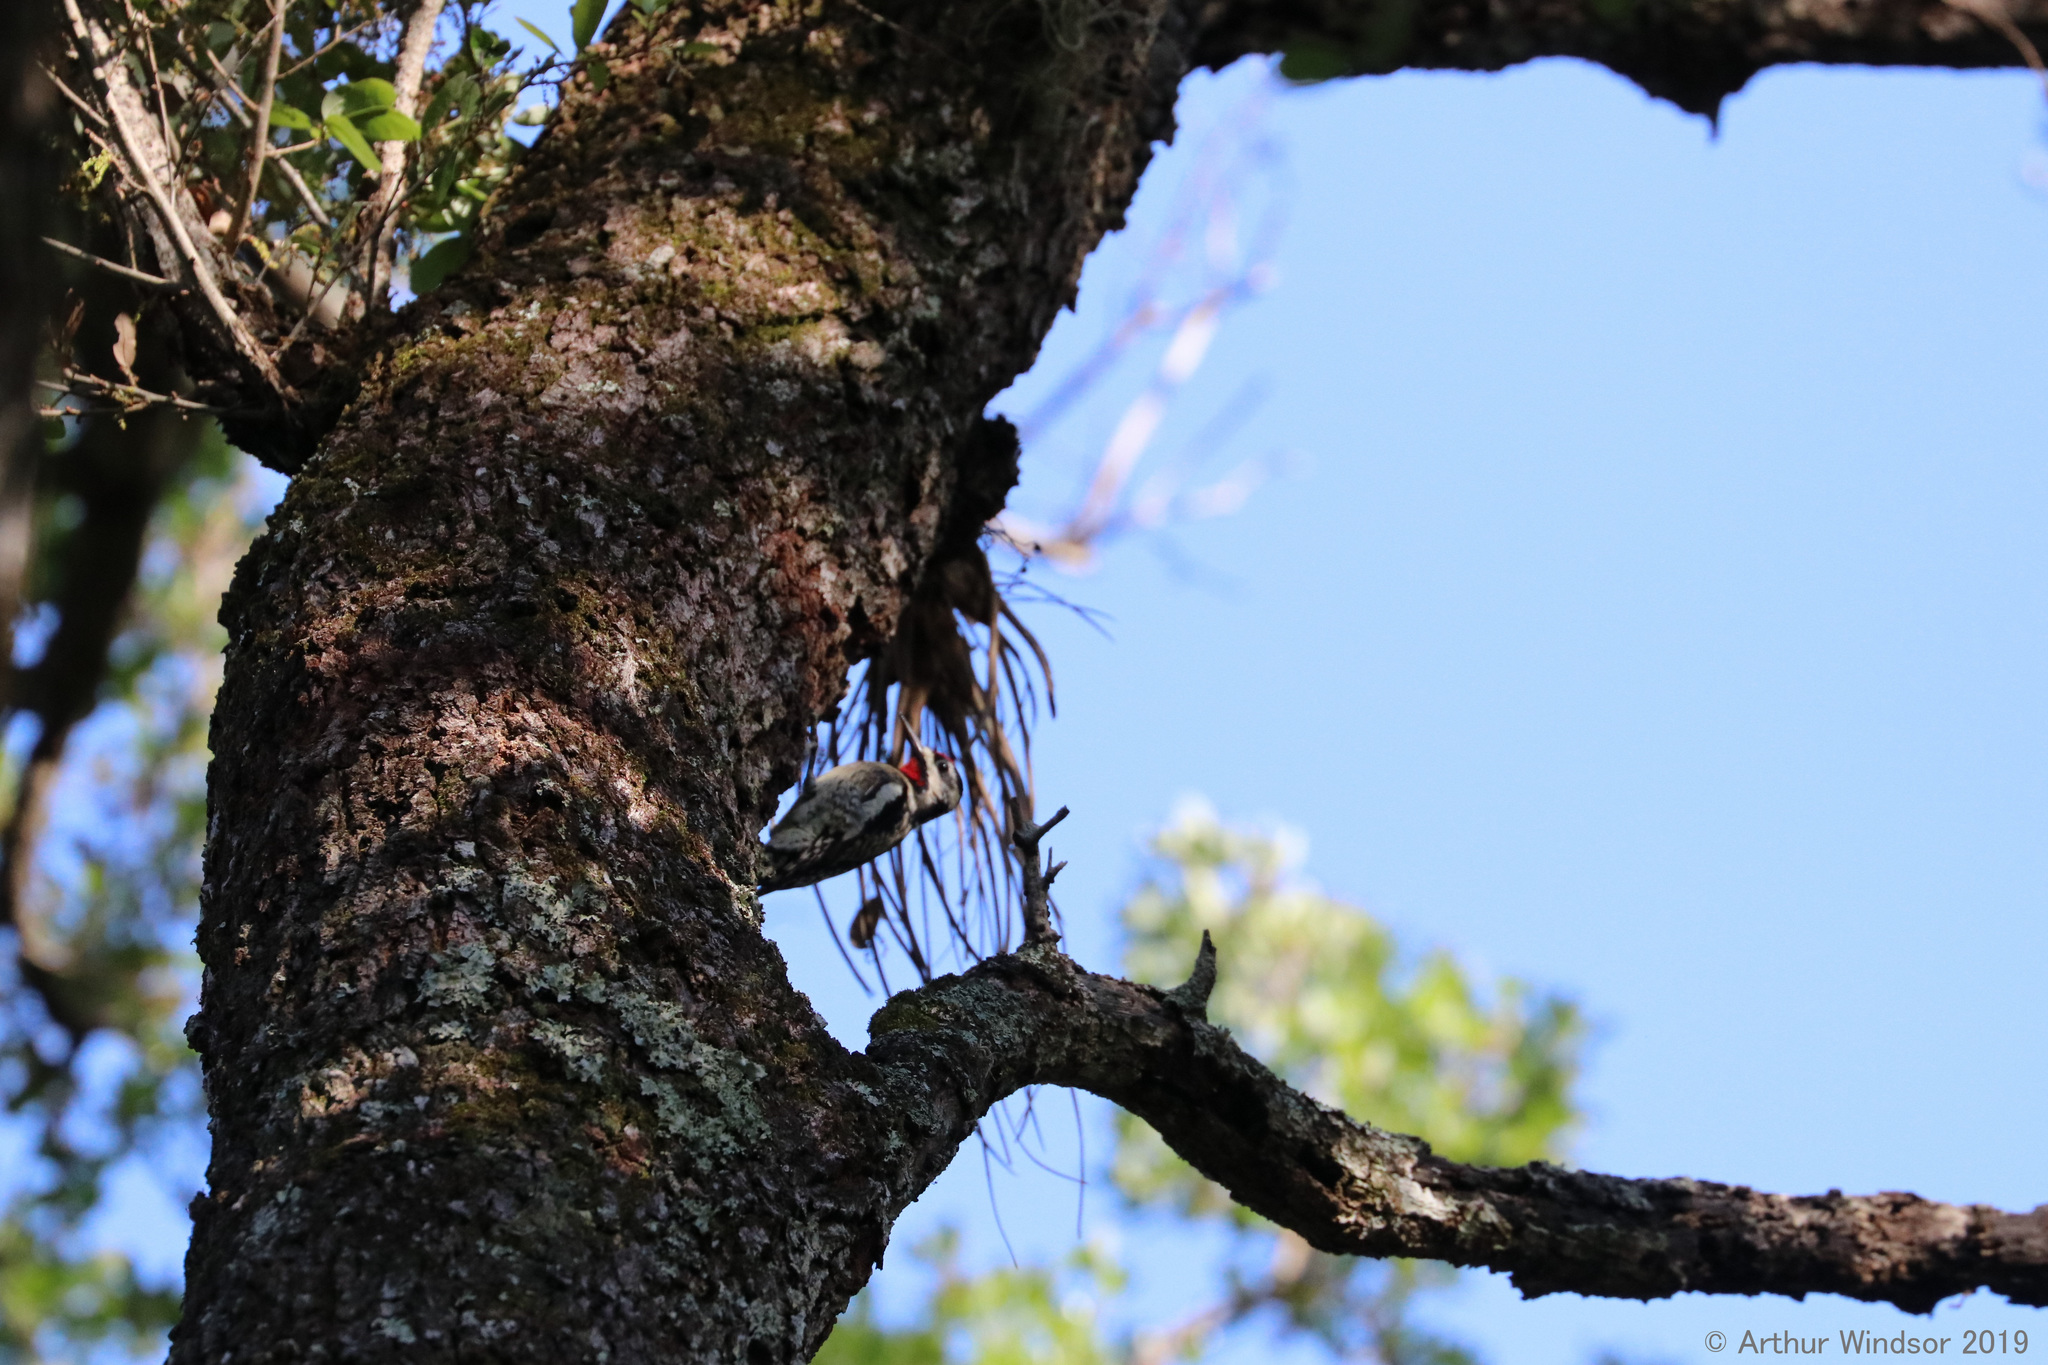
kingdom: Animalia
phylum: Chordata
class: Aves
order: Piciformes
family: Picidae
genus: Sphyrapicus
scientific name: Sphyrapicus varius
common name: Yellow-bellied sapsucker
